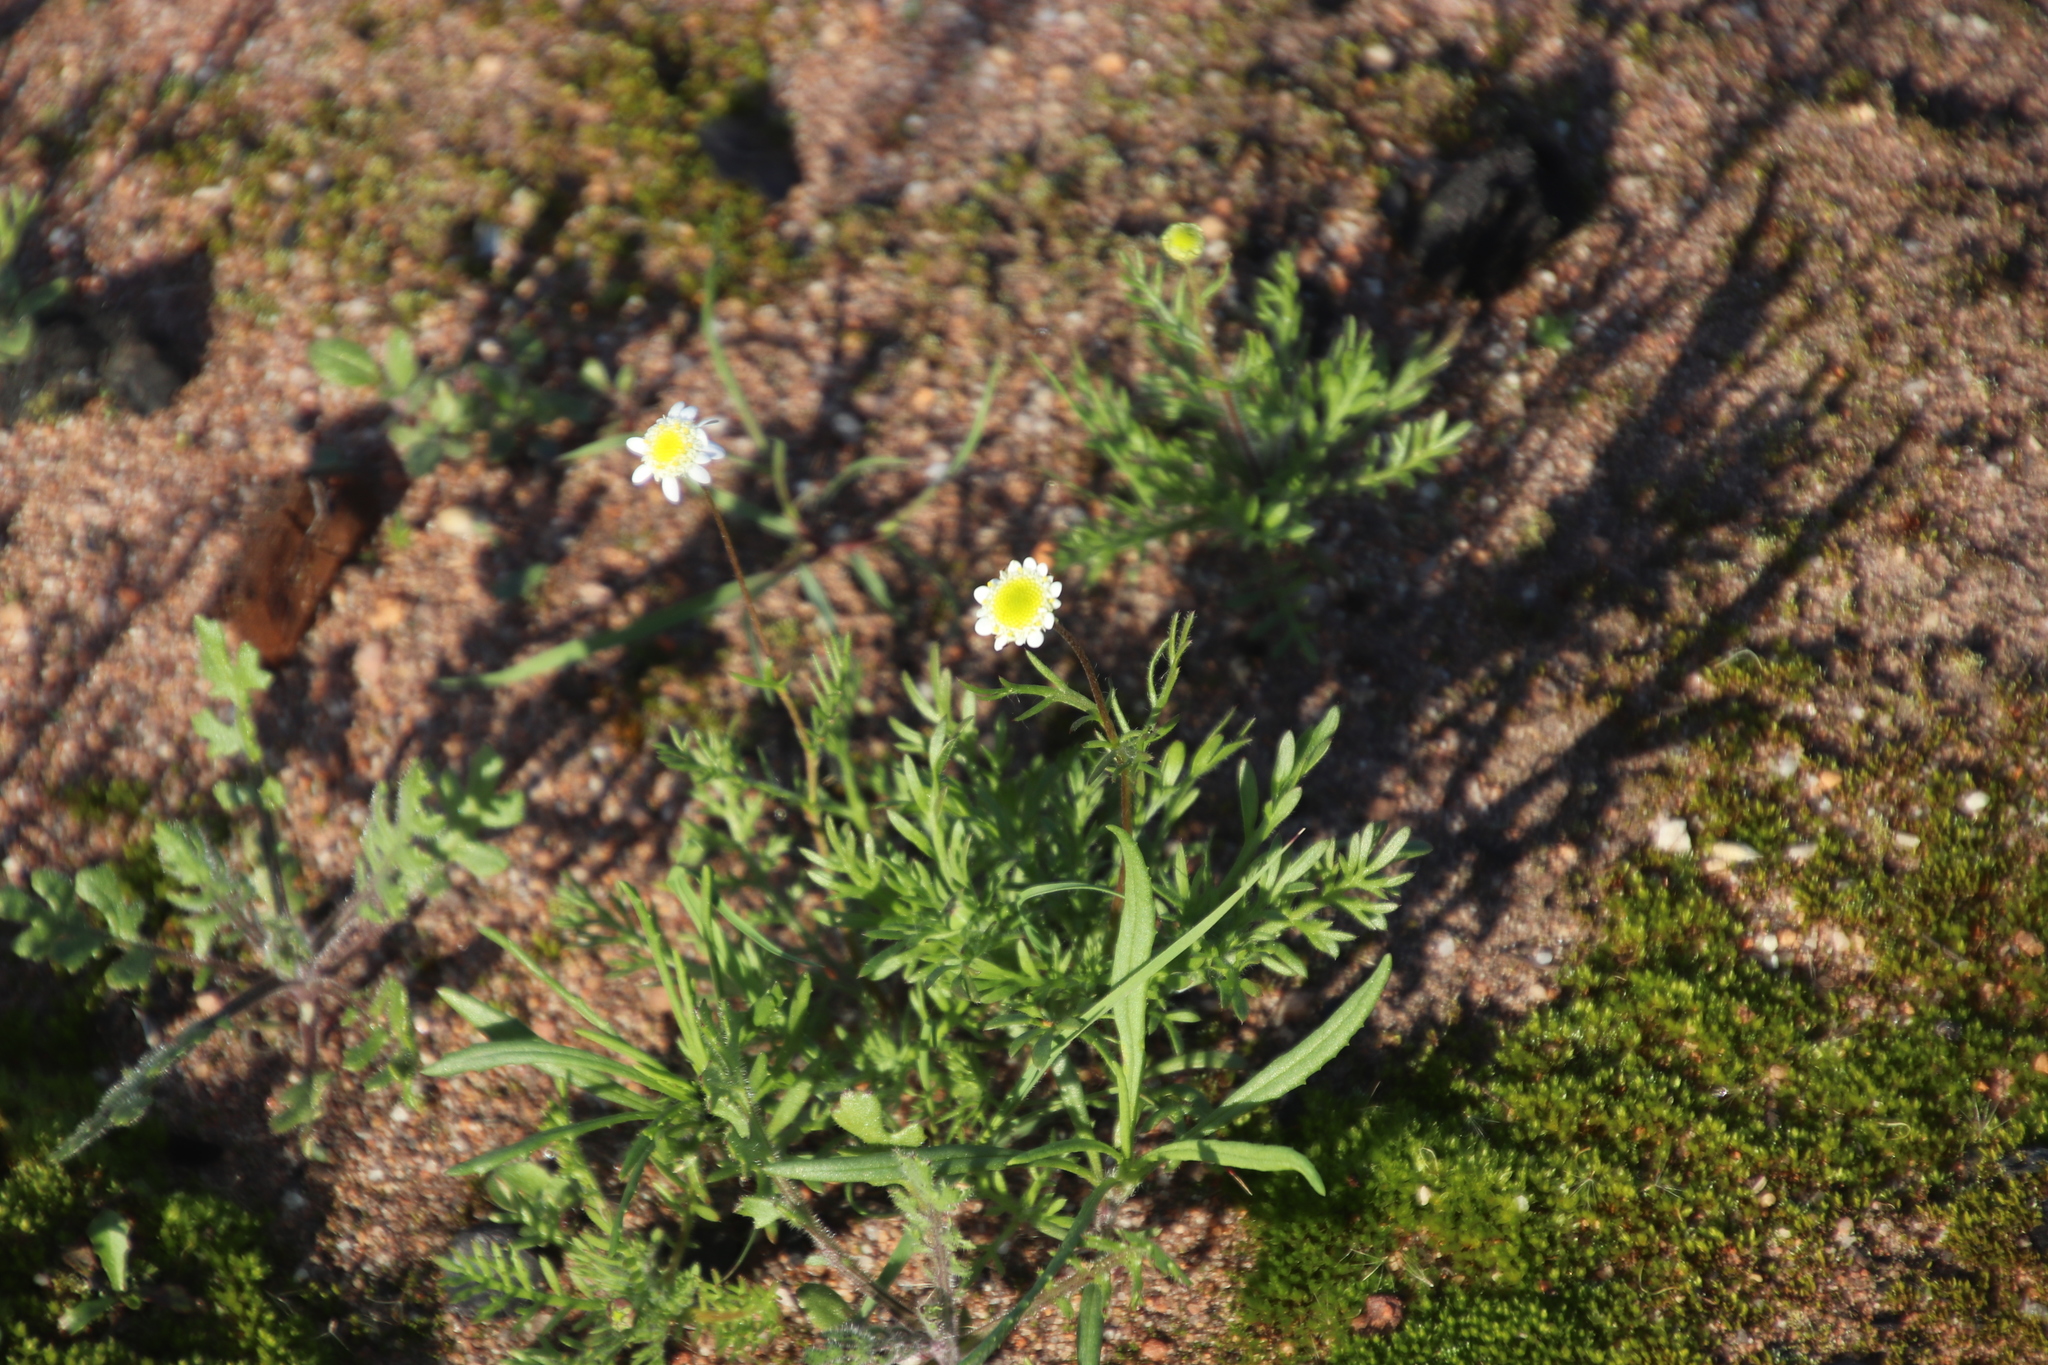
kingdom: Plantae
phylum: Tracheophyta
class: Magnoliopsida
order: Asterales
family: Asteraceae
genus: Cotula
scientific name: Cotula turbinata
